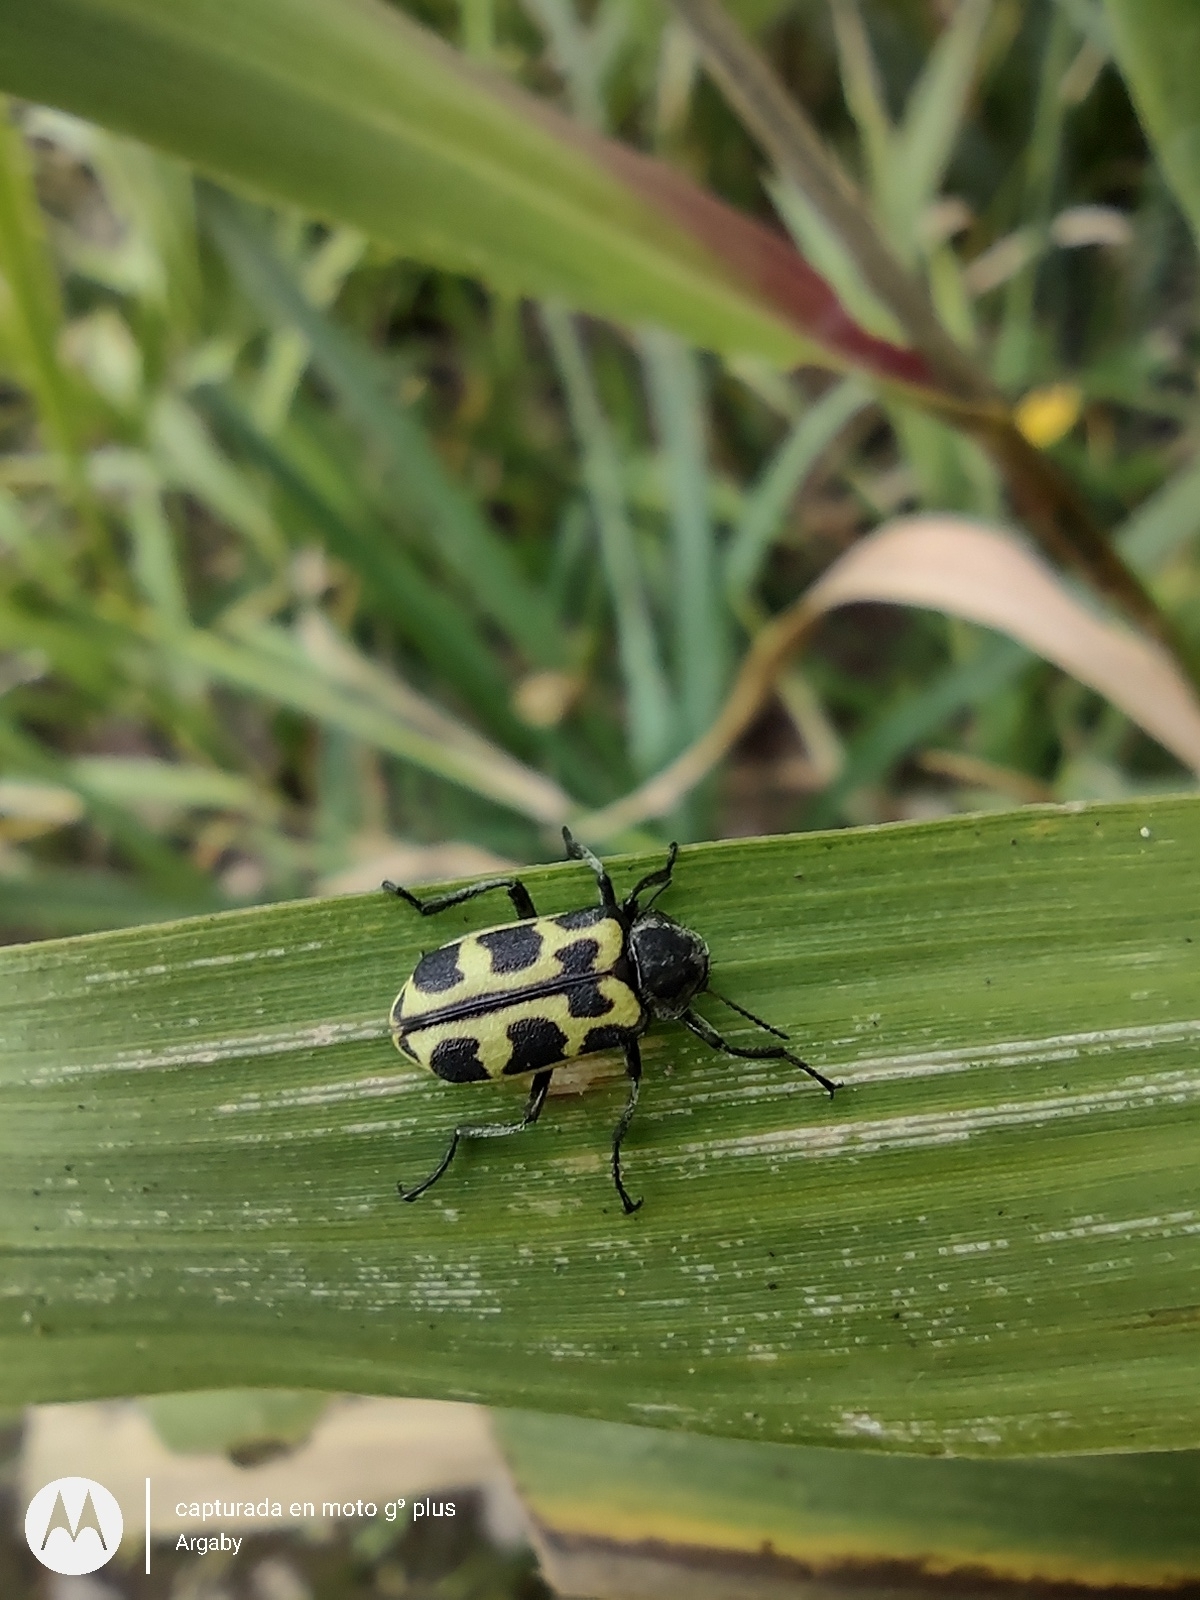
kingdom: Animalia
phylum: Arthropoda
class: Insecta
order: Coleoptera
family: Melyridae
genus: Astylus
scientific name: Astylus atromaculatus
